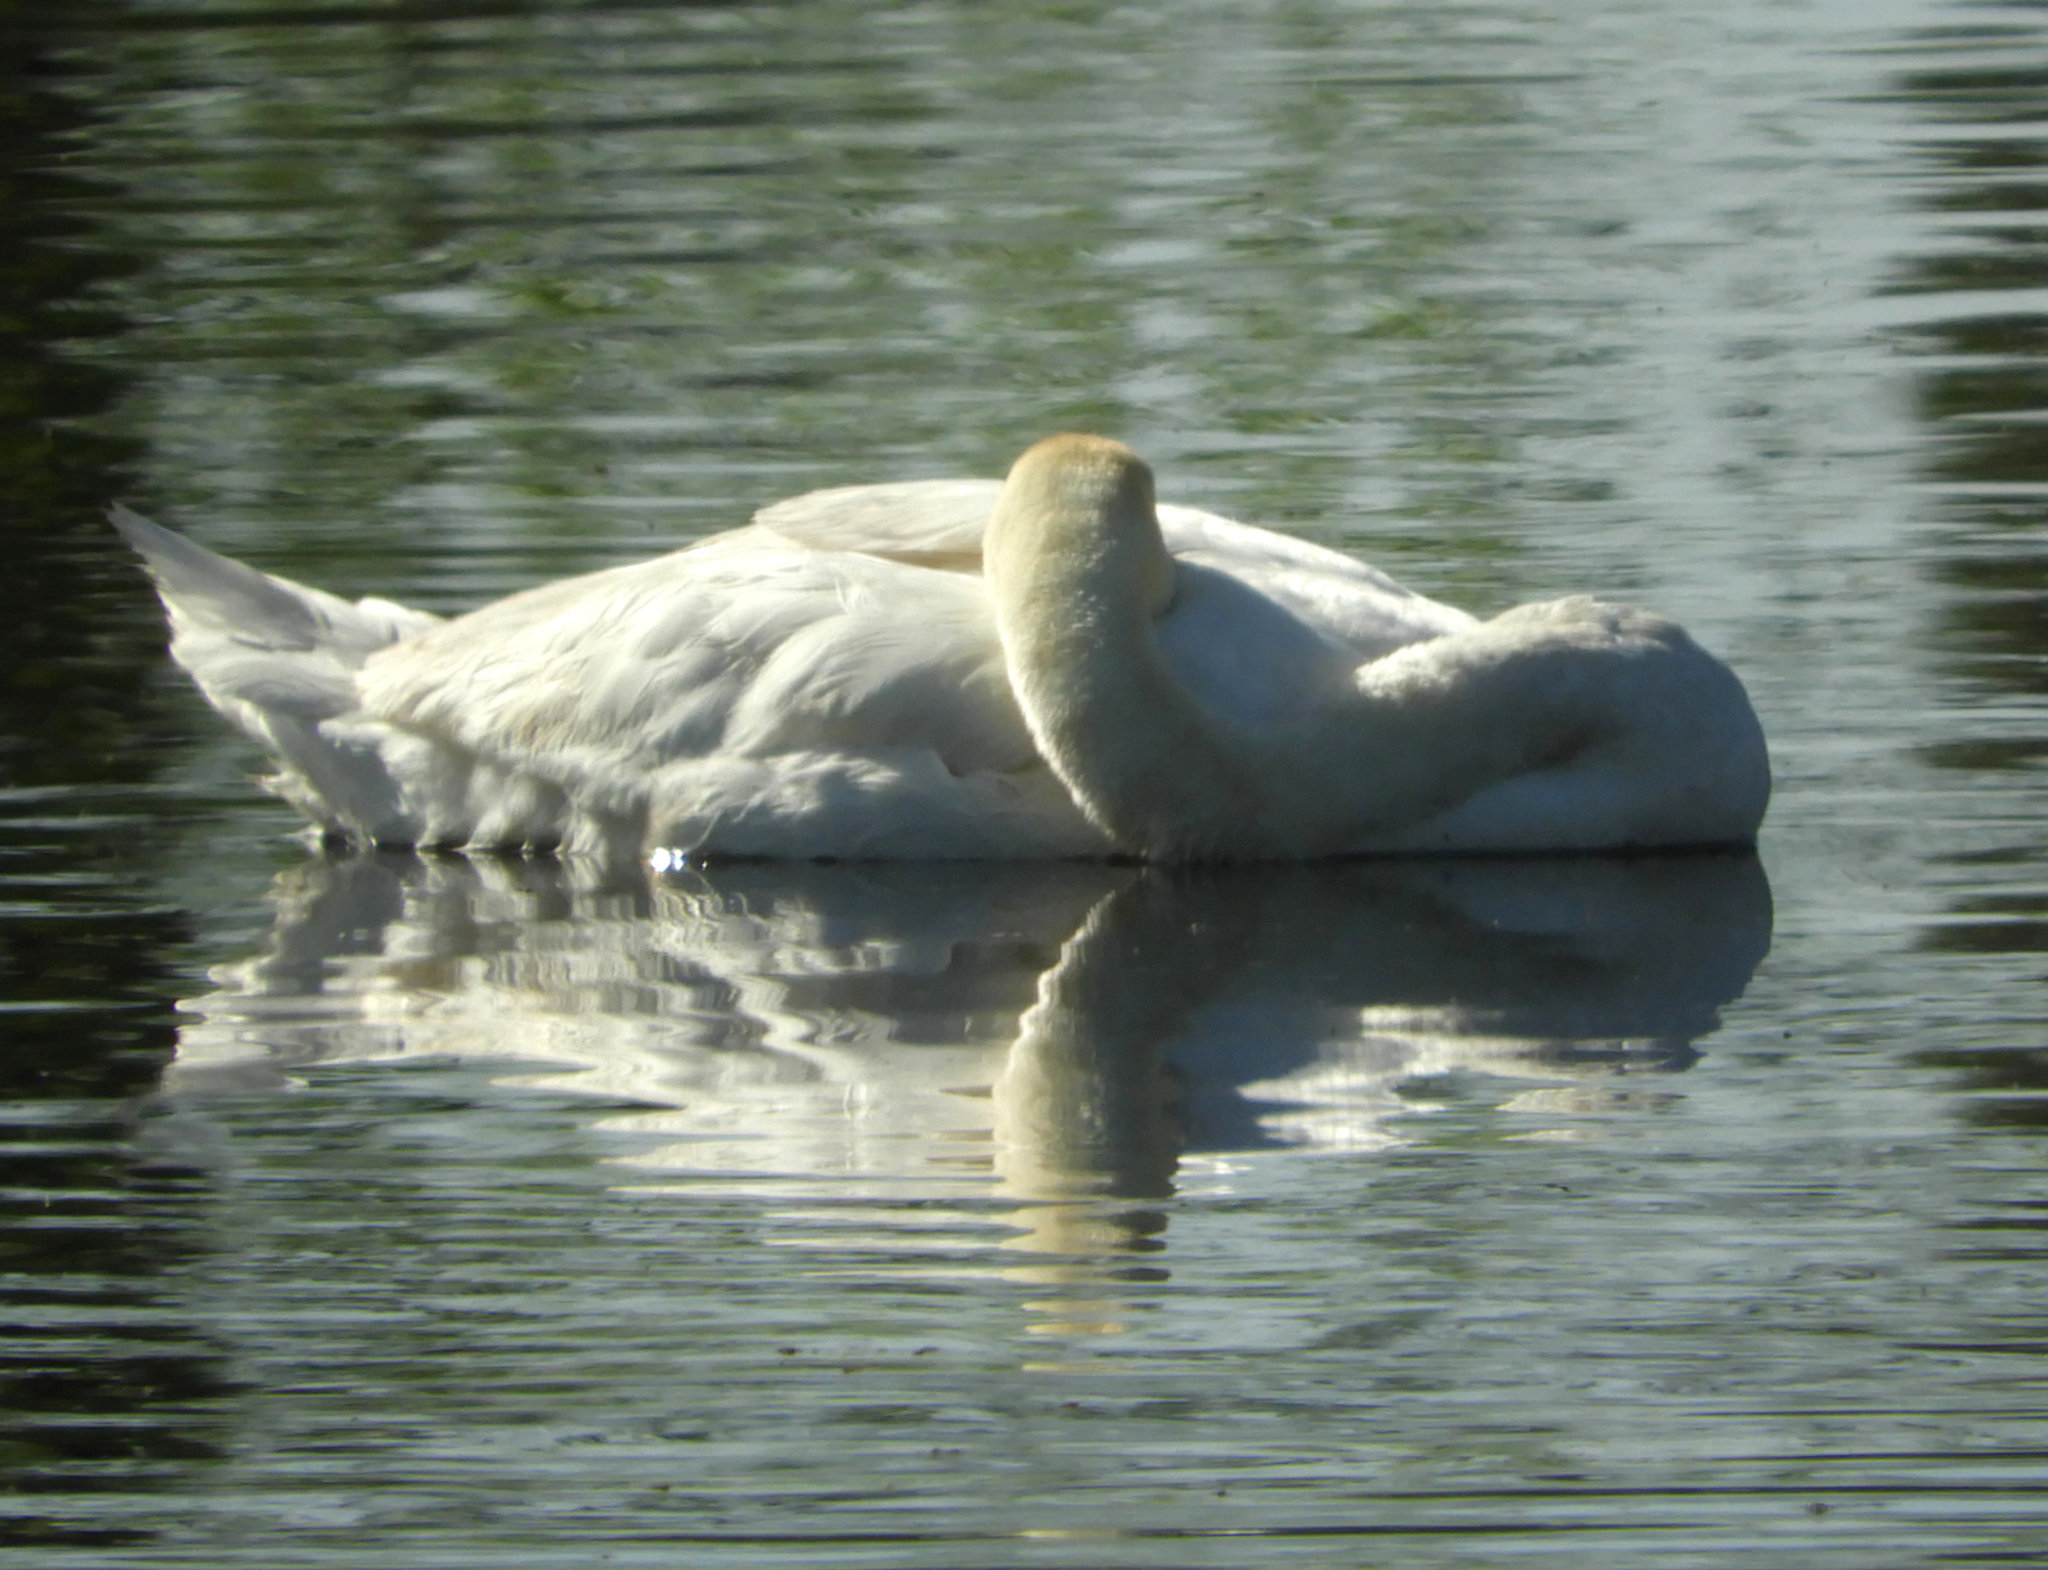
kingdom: Animalia
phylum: Chordata
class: Aves
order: Anseriformes
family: Anatidae
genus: Cygnus
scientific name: Cygnus olor
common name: Mute swan
